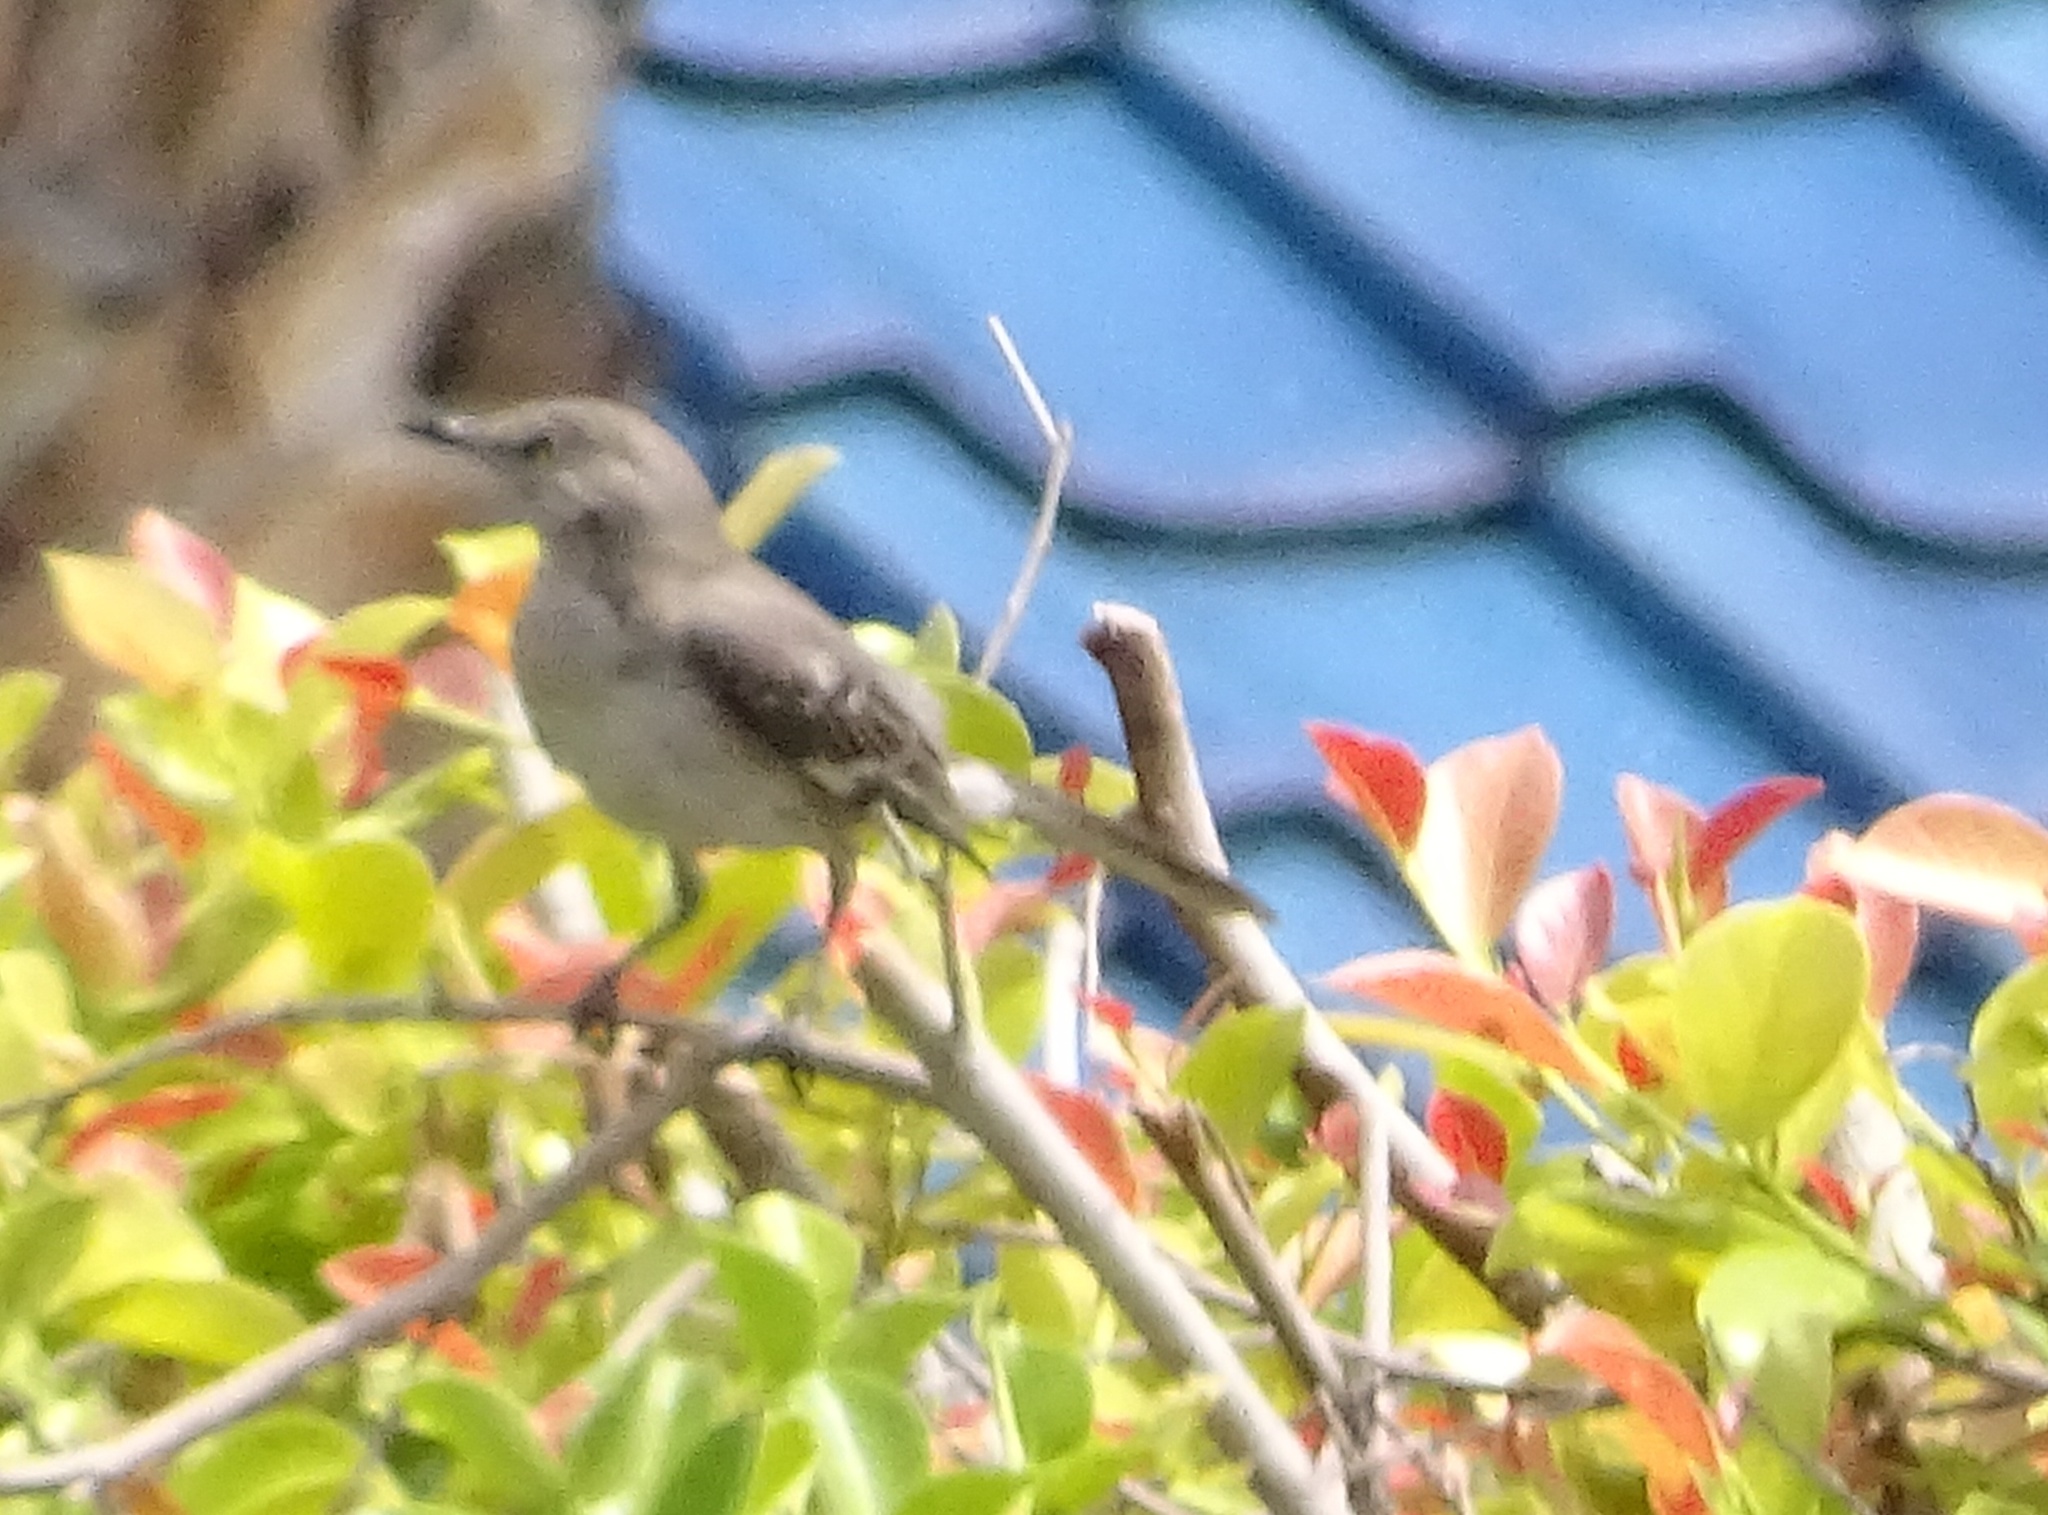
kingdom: Animalia
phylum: Chordata
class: Aves
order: Passeriformes
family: Mimidae
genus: Mimus
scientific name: Mimus polyglottos
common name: Northern mockingbird
